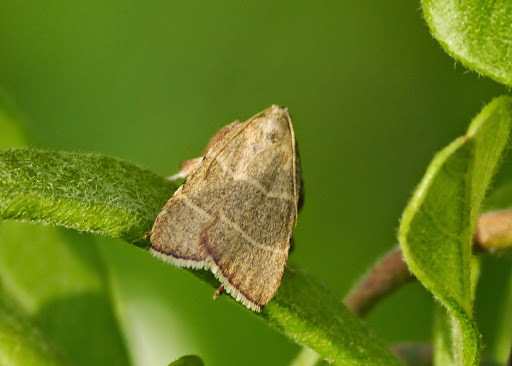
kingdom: Animalia
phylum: Arthropoda
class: Insecta
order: Lepidoptera
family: Pyralidae
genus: Parachma
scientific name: Parachma ochracealis
